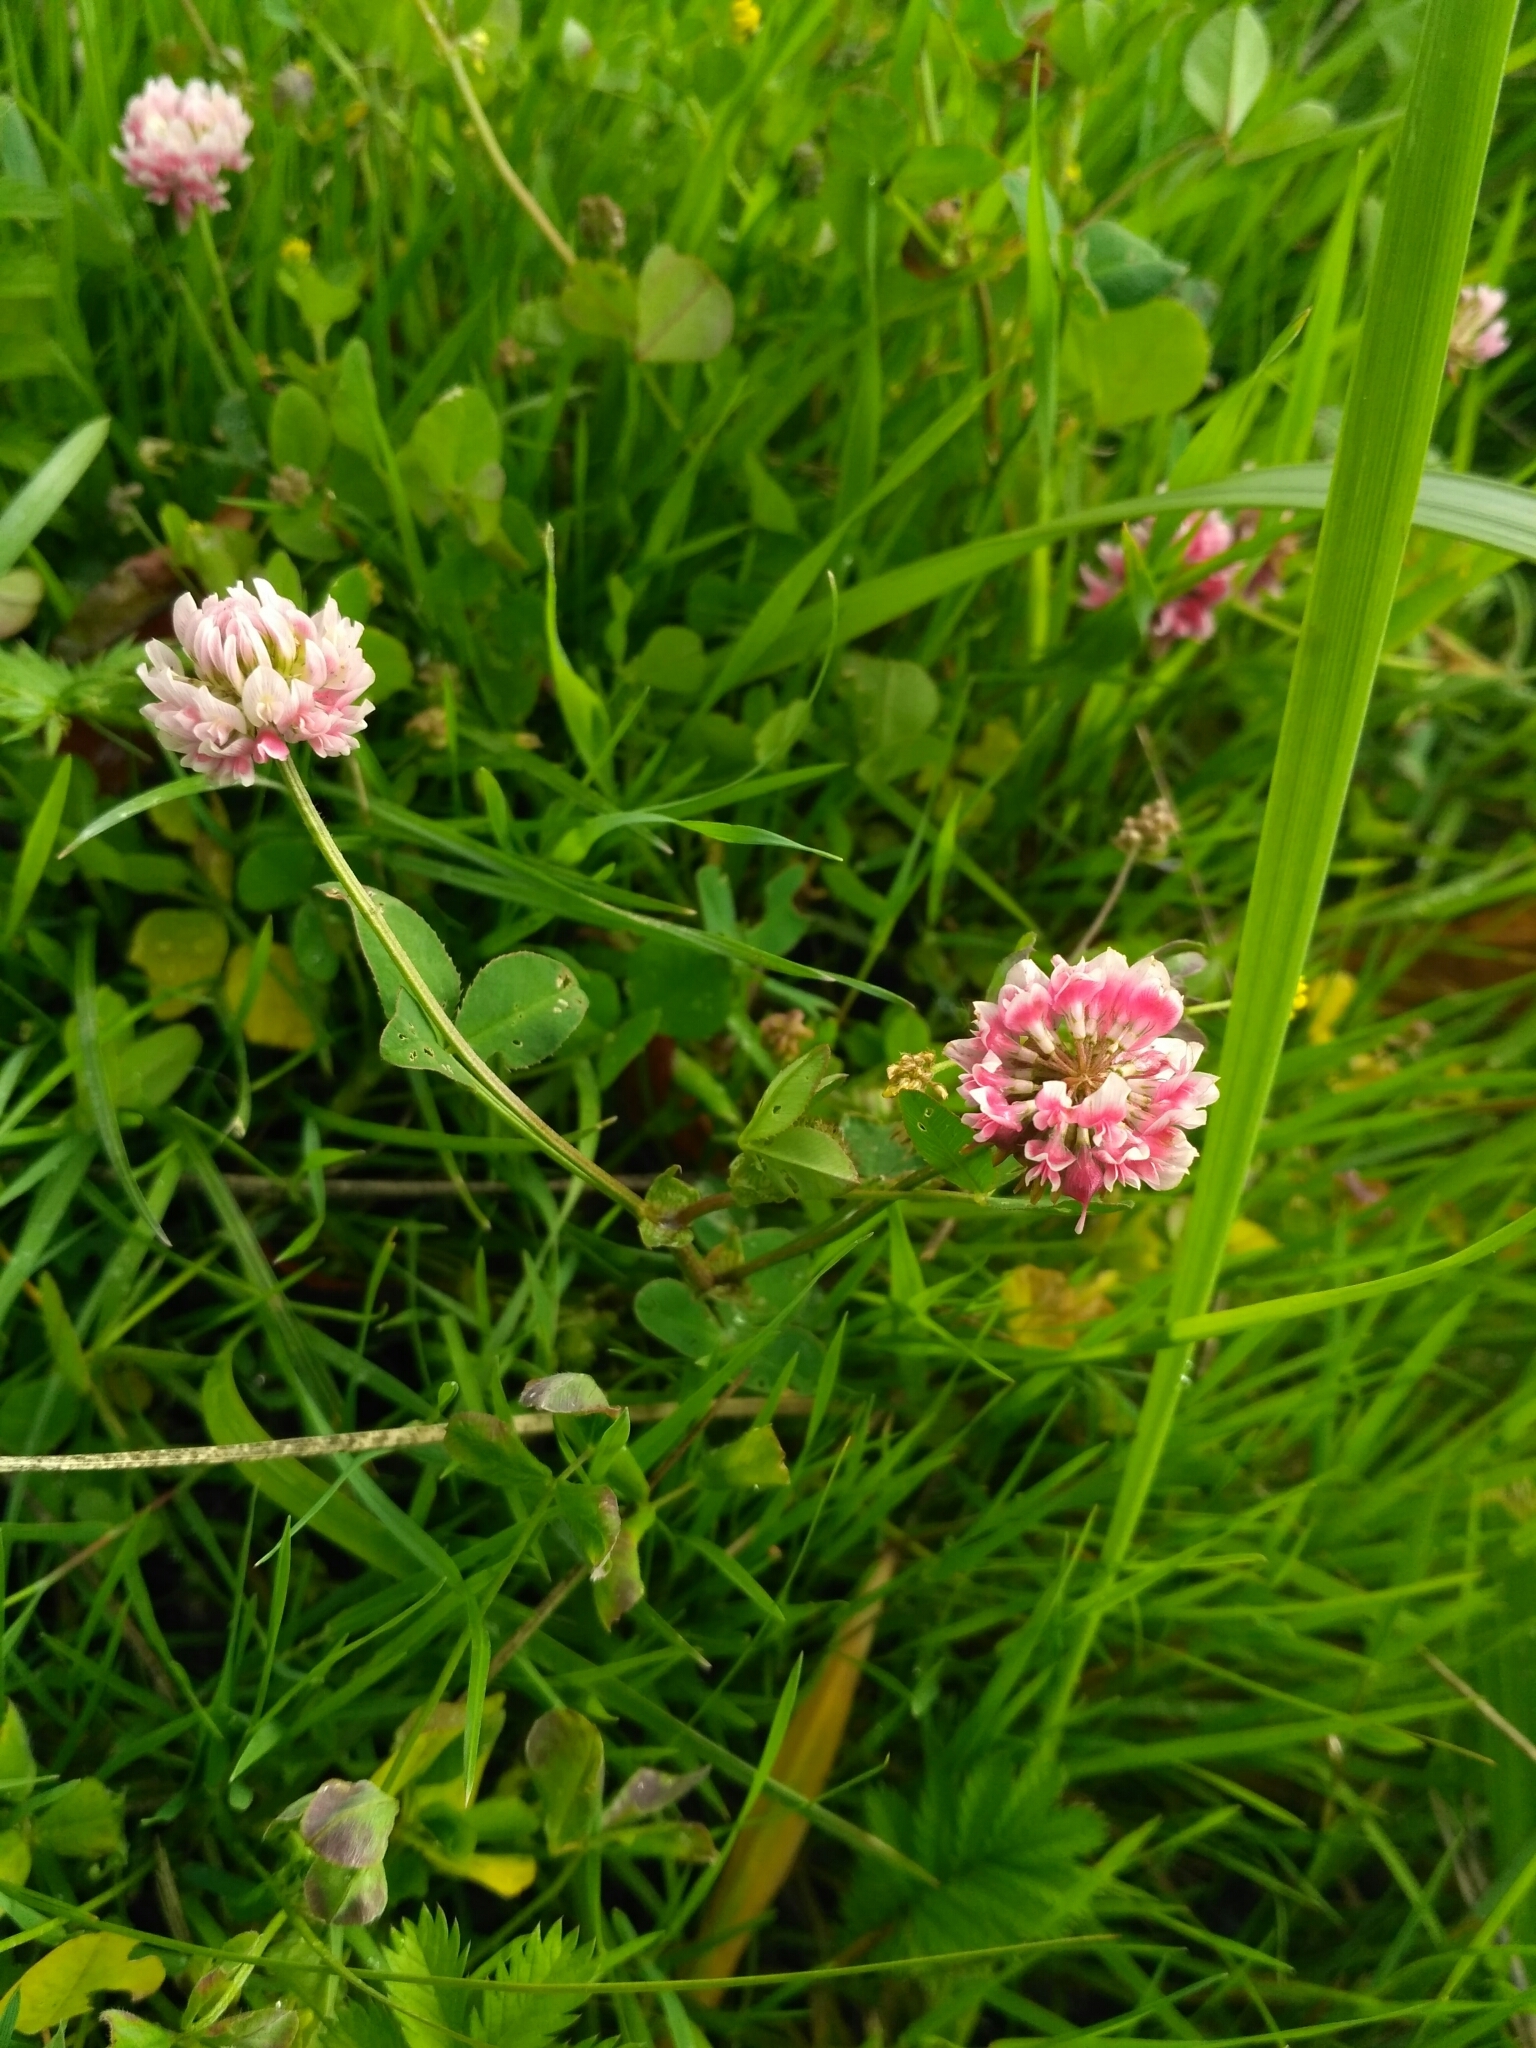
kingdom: Plantae
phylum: Tracheophyta
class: Magnoliopsida
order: Fabales
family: Fabaceae
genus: Trifolium
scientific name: Trifolium hybridum
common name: Alsike clover
